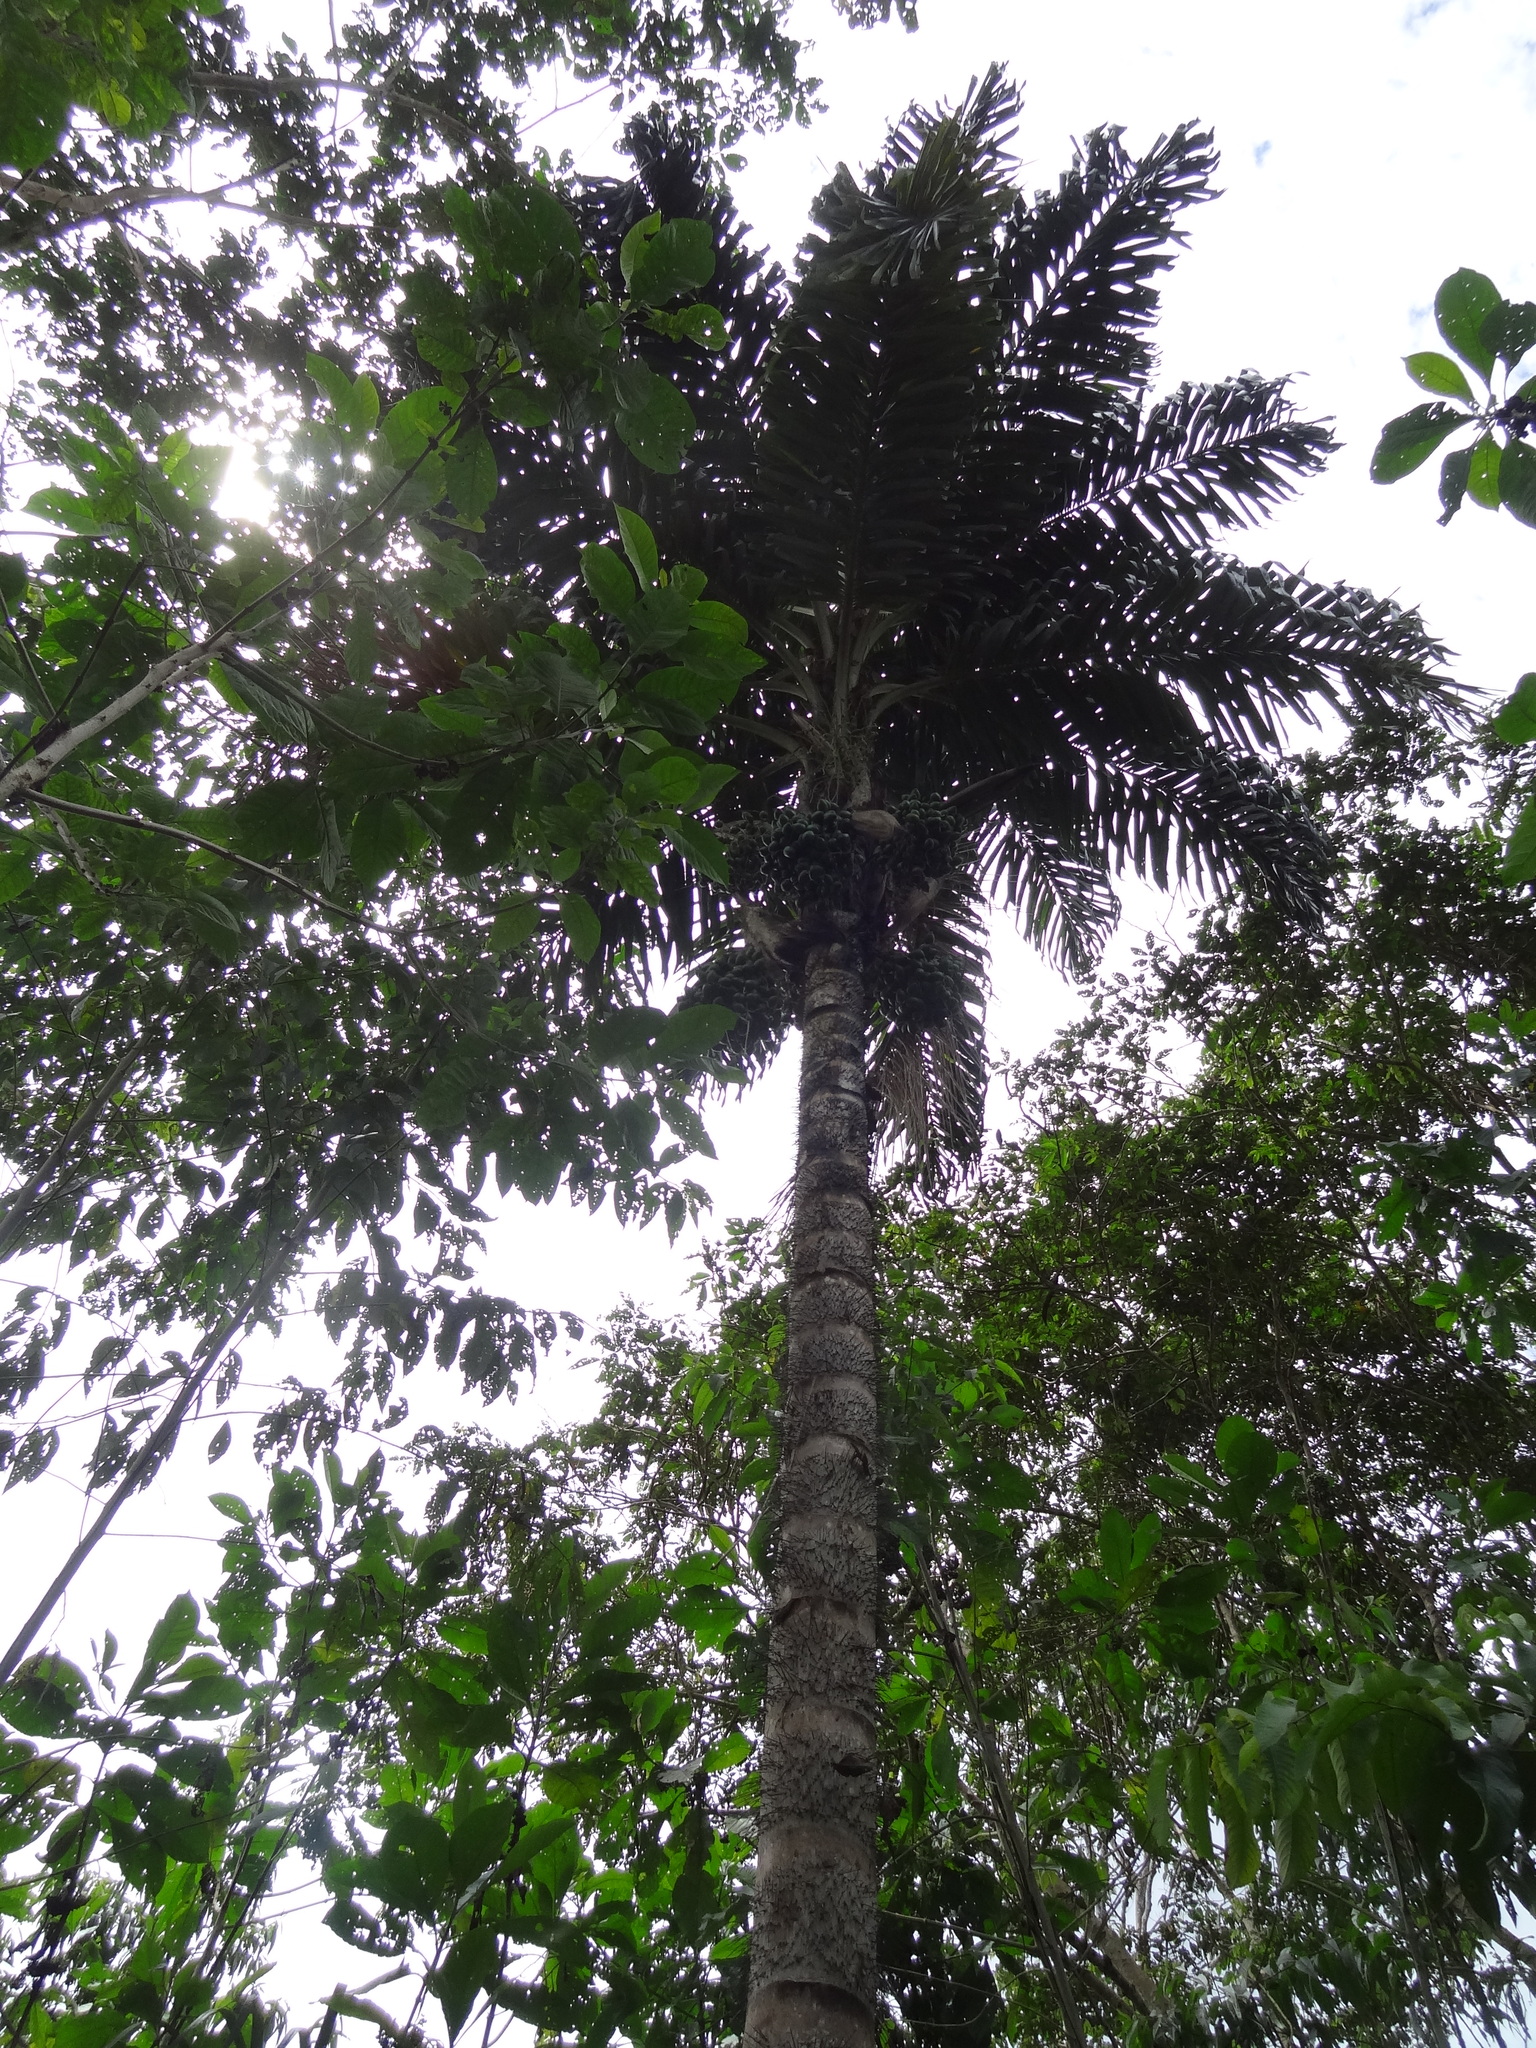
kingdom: Plantae
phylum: Tracheophyta
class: Liliopsida
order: Arecales
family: Arecaceae
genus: Bactris
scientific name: Bactris gasipaes
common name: Peach palm
